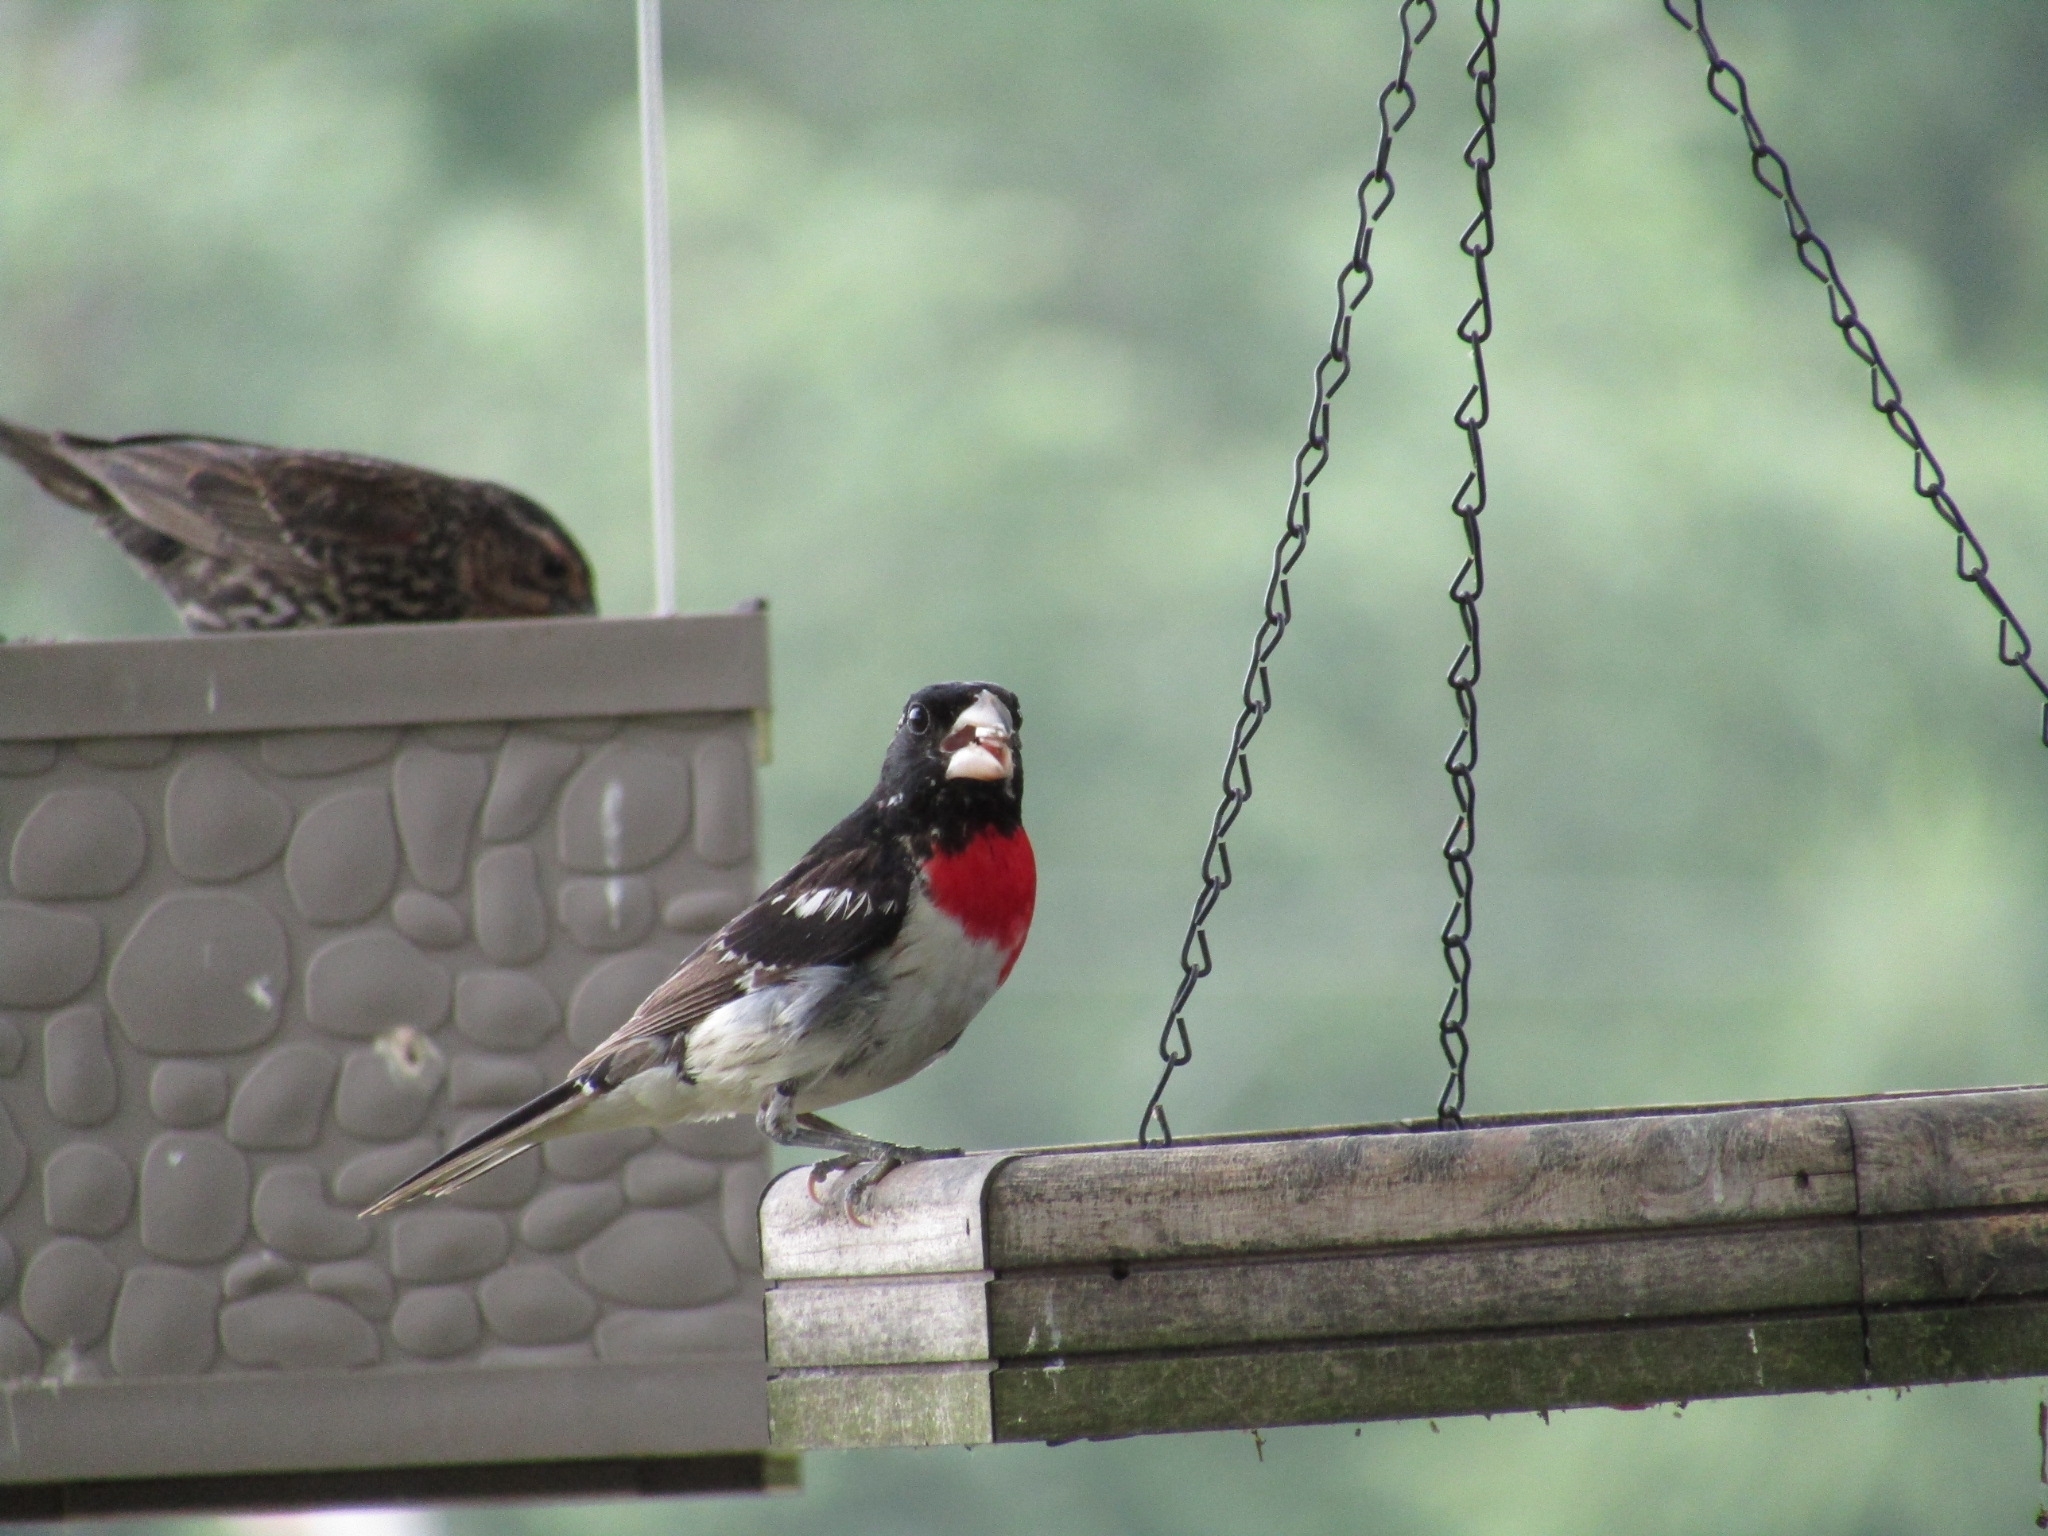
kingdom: Animalia
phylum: Chordata
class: Aves
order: Passeriformes
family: Cardinalidae
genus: Pheucticus
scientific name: Pheucticus ludovicianus
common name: Rose-breasted grosbeak
